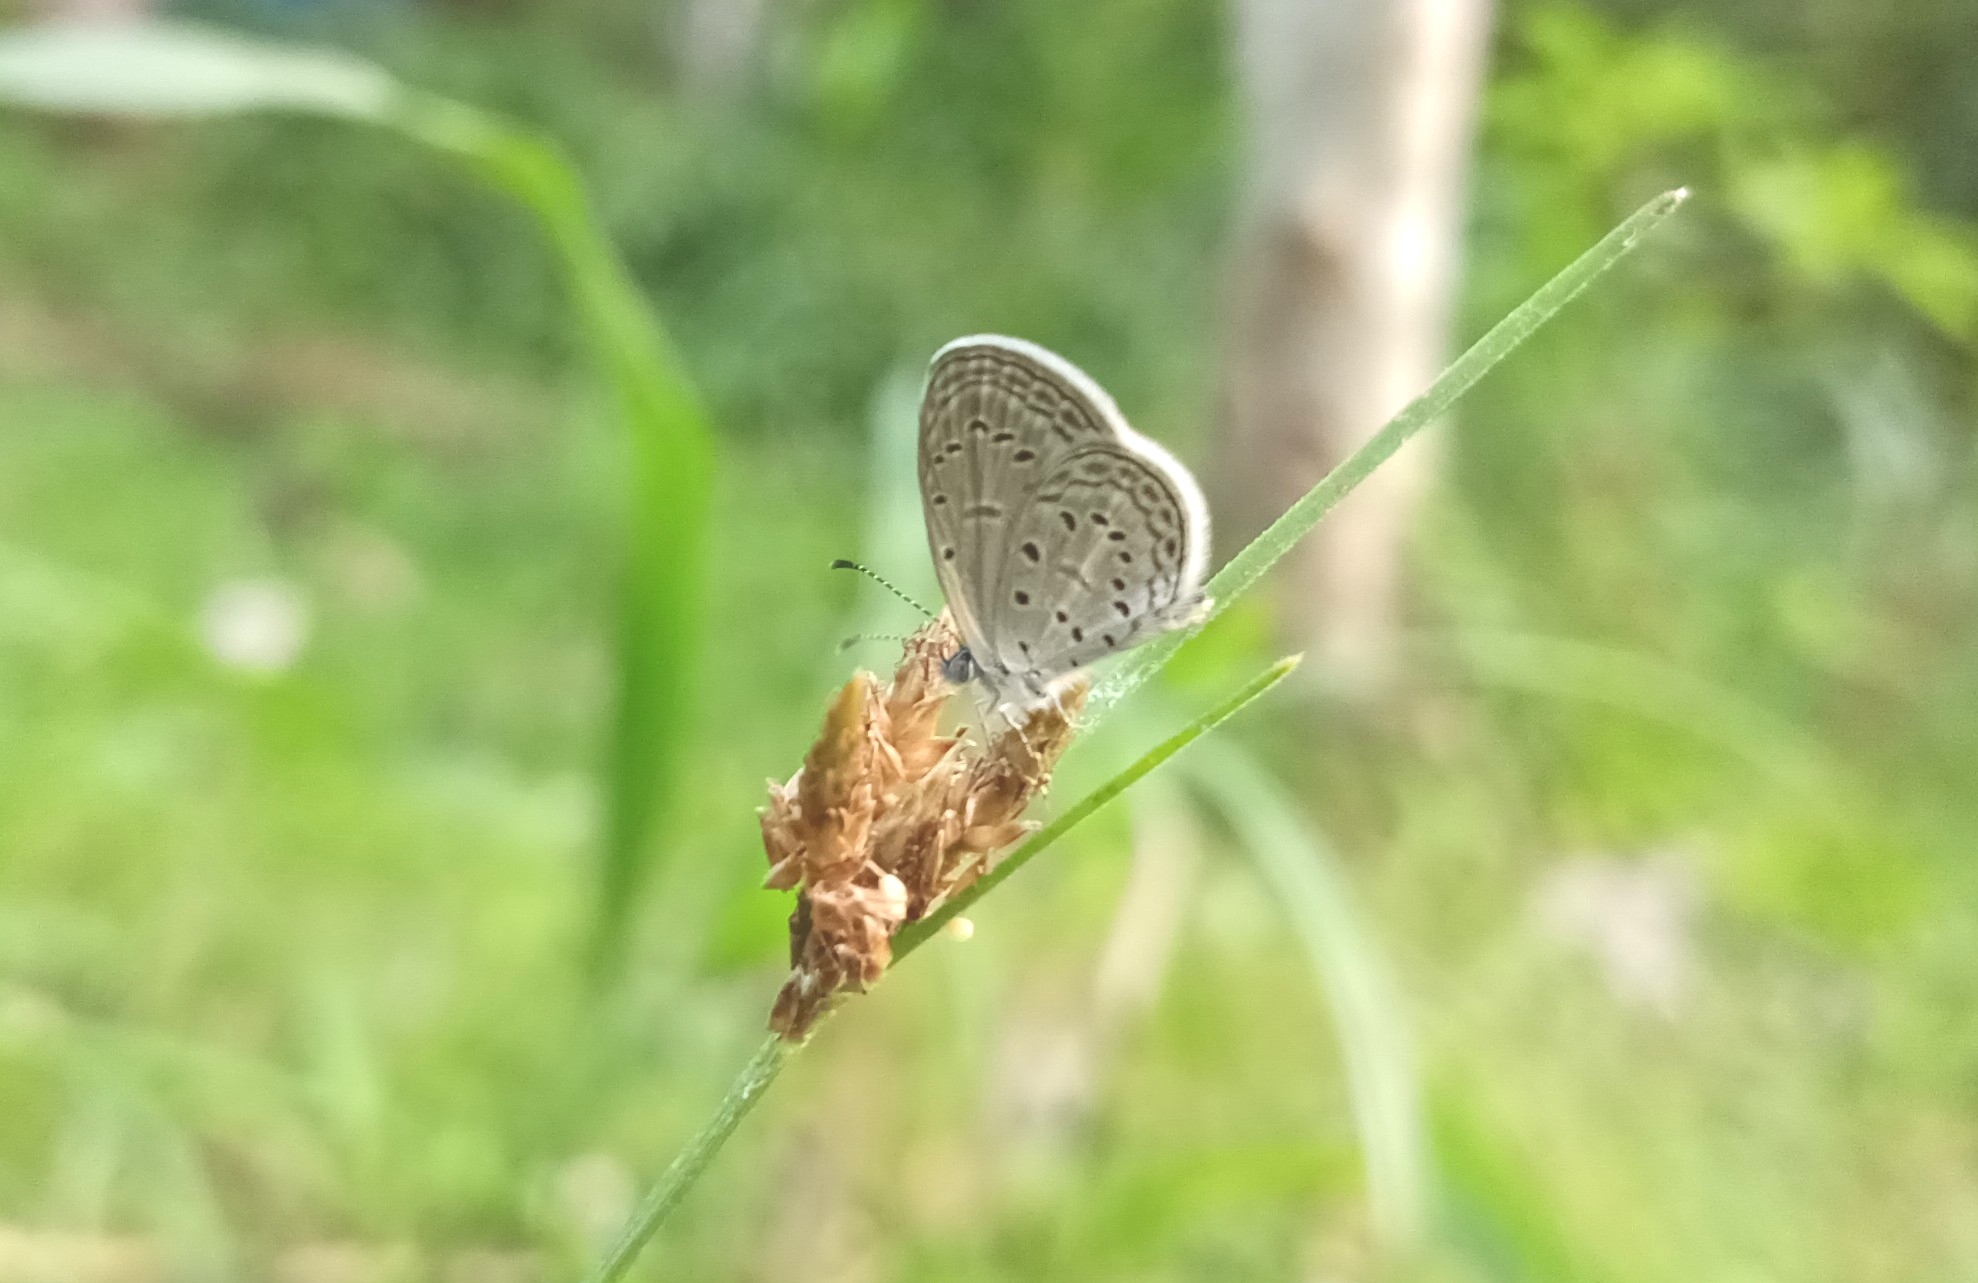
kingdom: Animalia
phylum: Arthropoda
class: Insecta
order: Lepidoptera
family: Lycaenidae
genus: Zizula
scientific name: Zizula hylax
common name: Gaika blue
